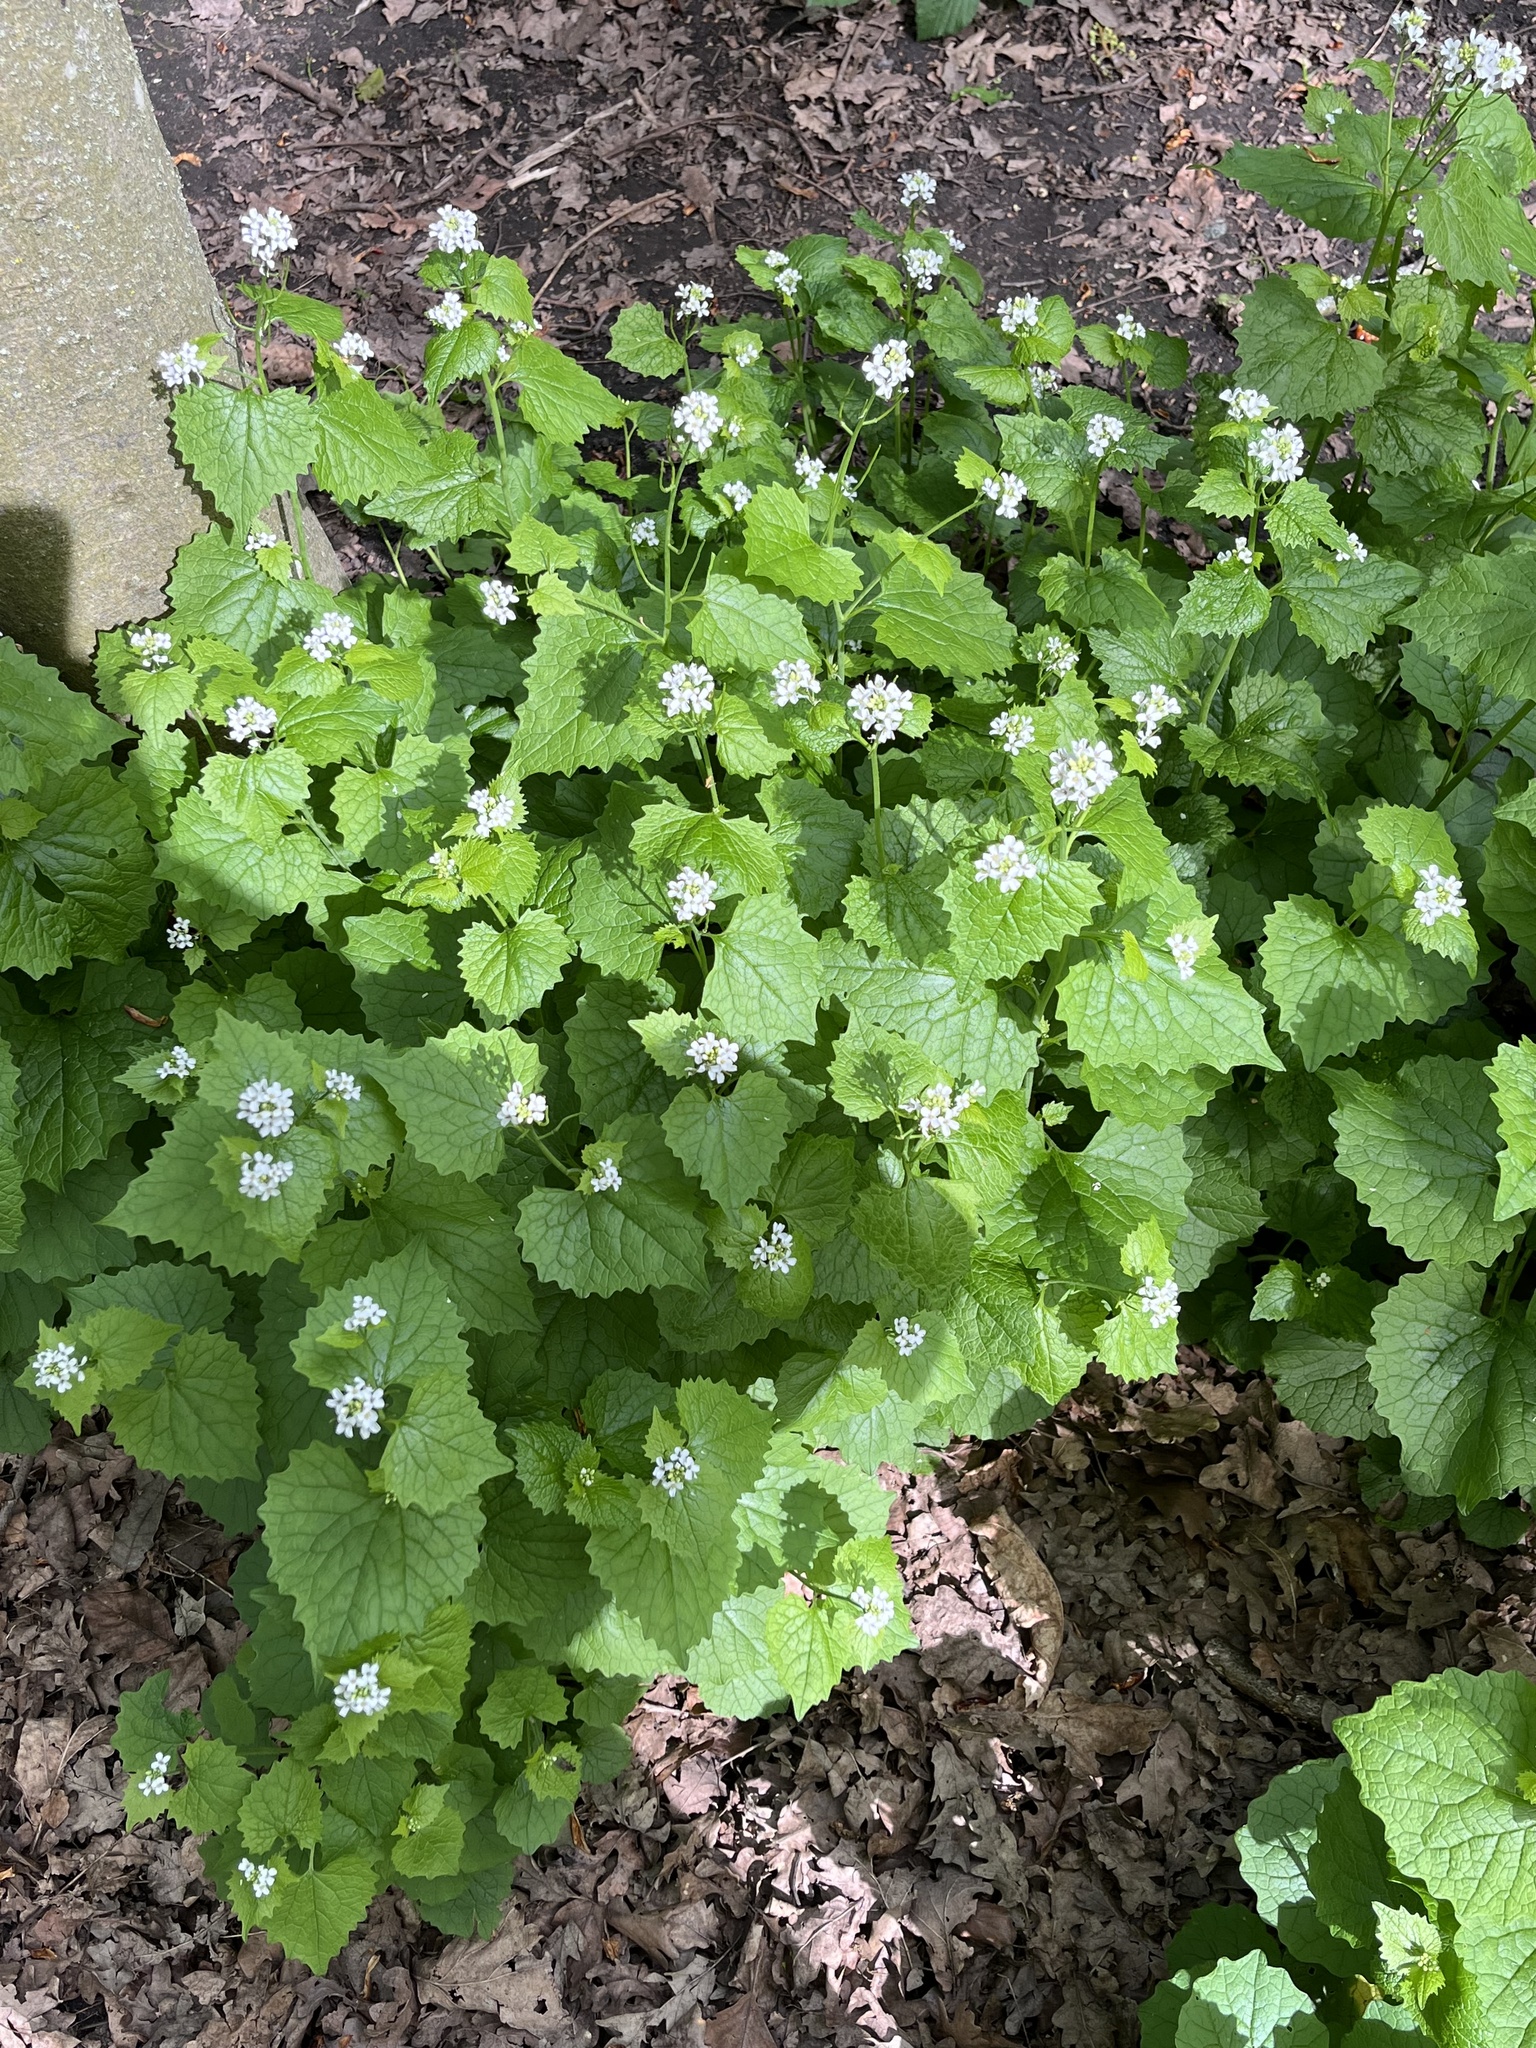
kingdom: Plantae
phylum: Tracheophyta
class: Magnoliopsida
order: Brassicales
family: Brassicaceae
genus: Alliaria
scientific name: Alliaria petiolata
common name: Garlic mustard
